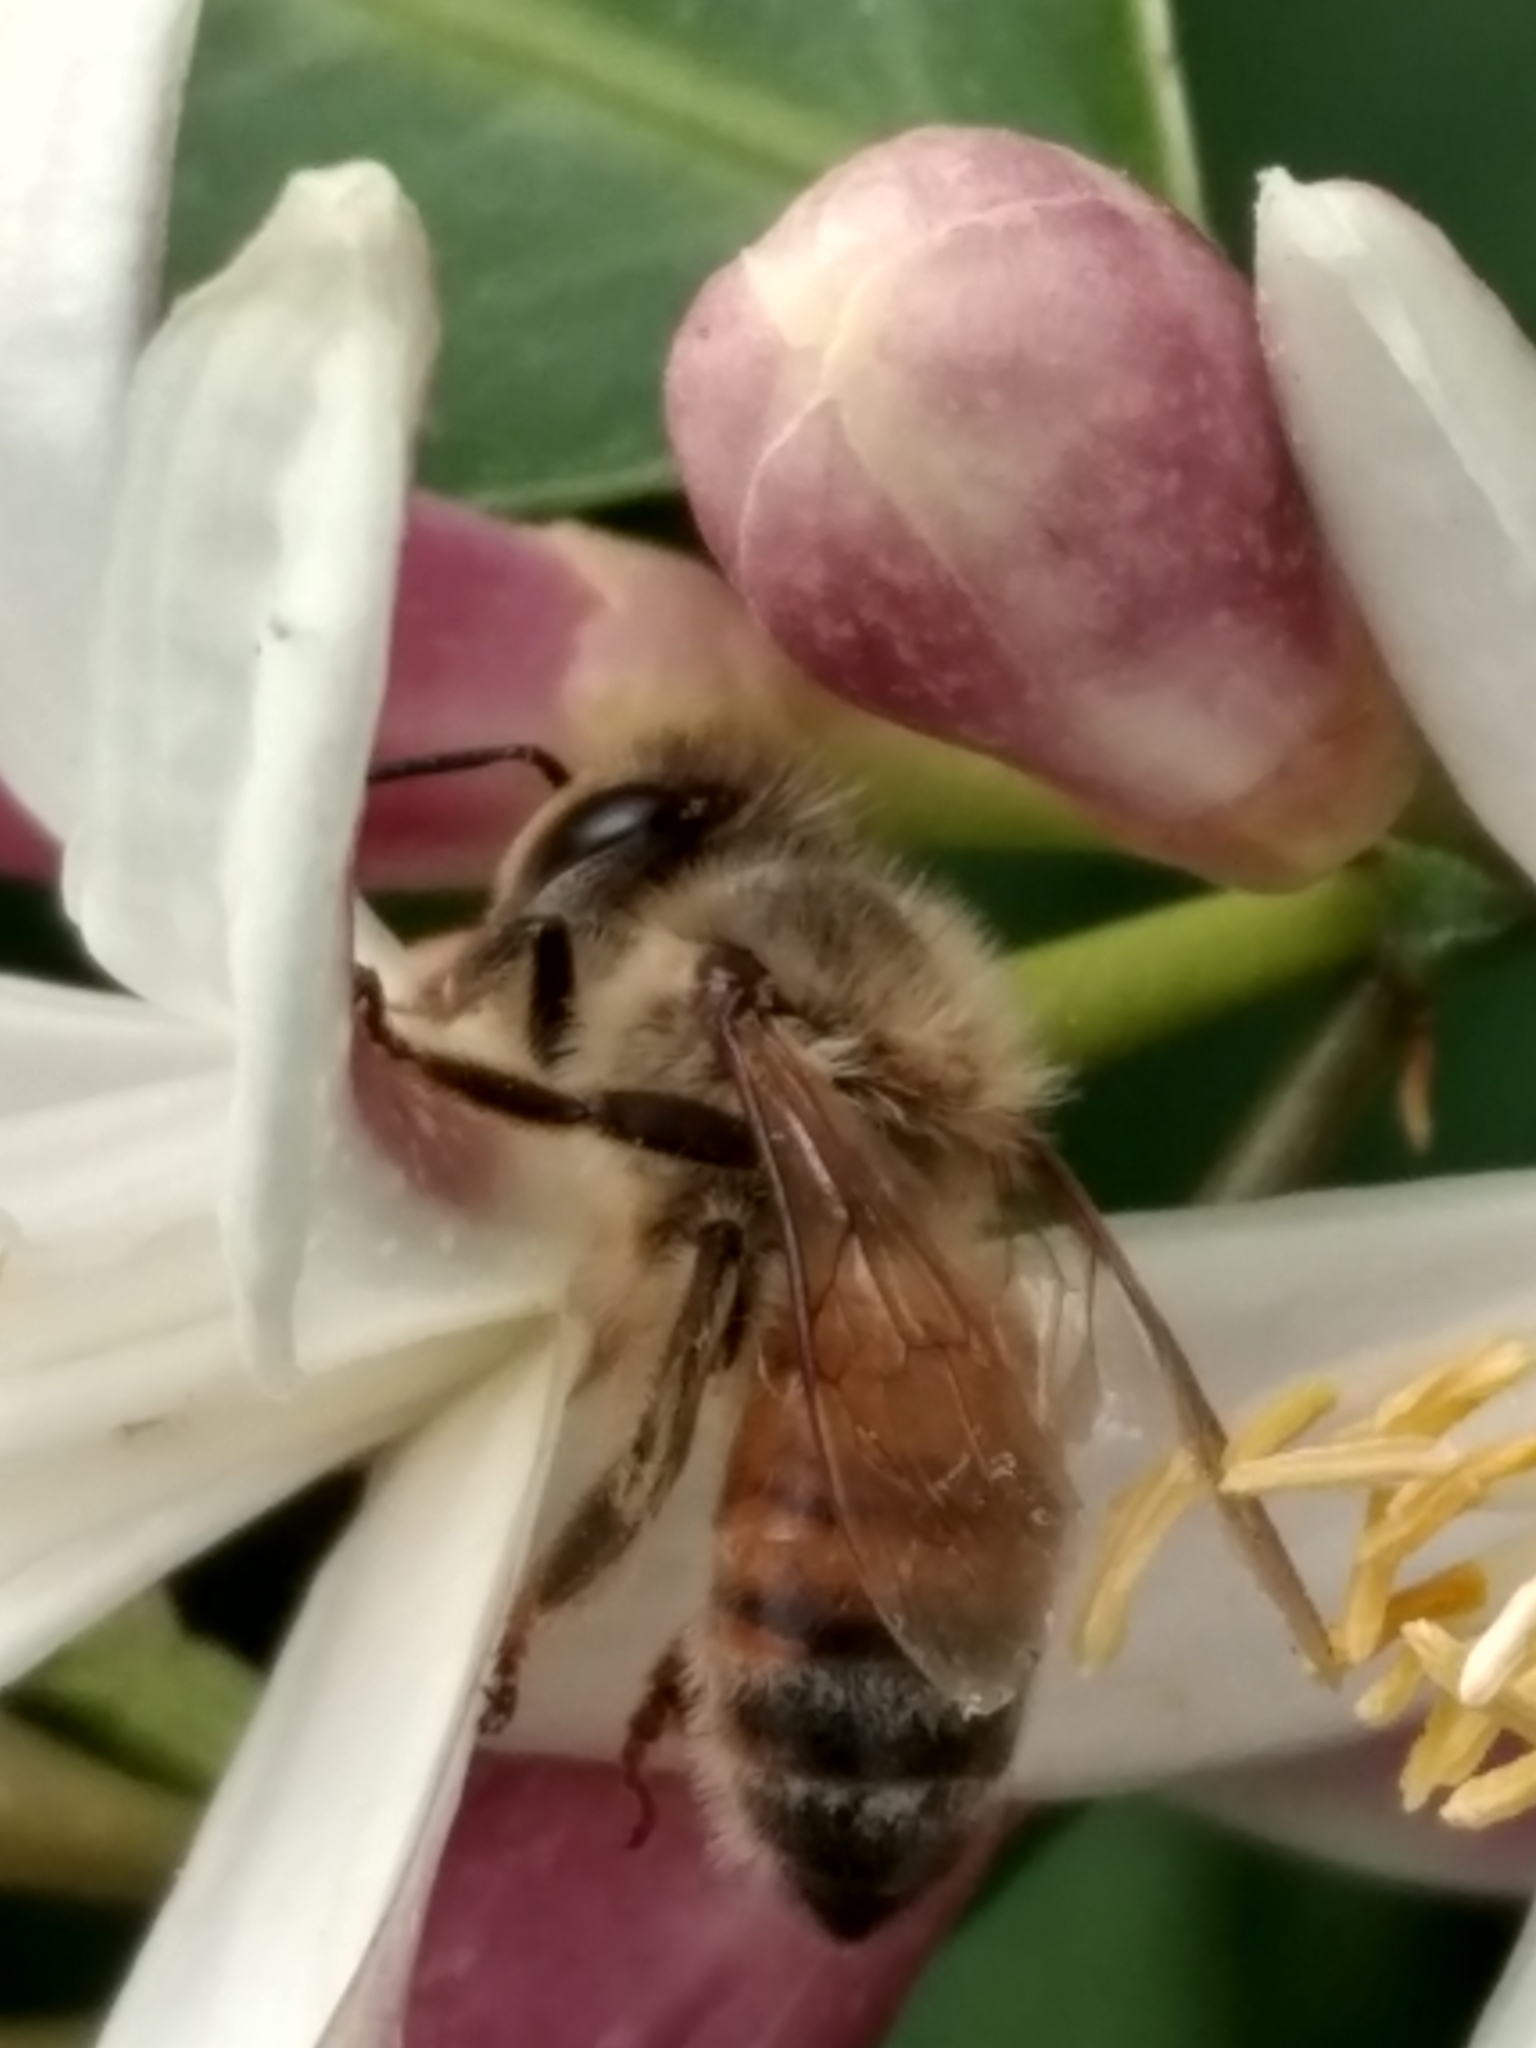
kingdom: Animalia
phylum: Arthropoda
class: Insecta
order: Hymenoptera
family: Apidae
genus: Apis
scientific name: Apis mellifera
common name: Honey bee
